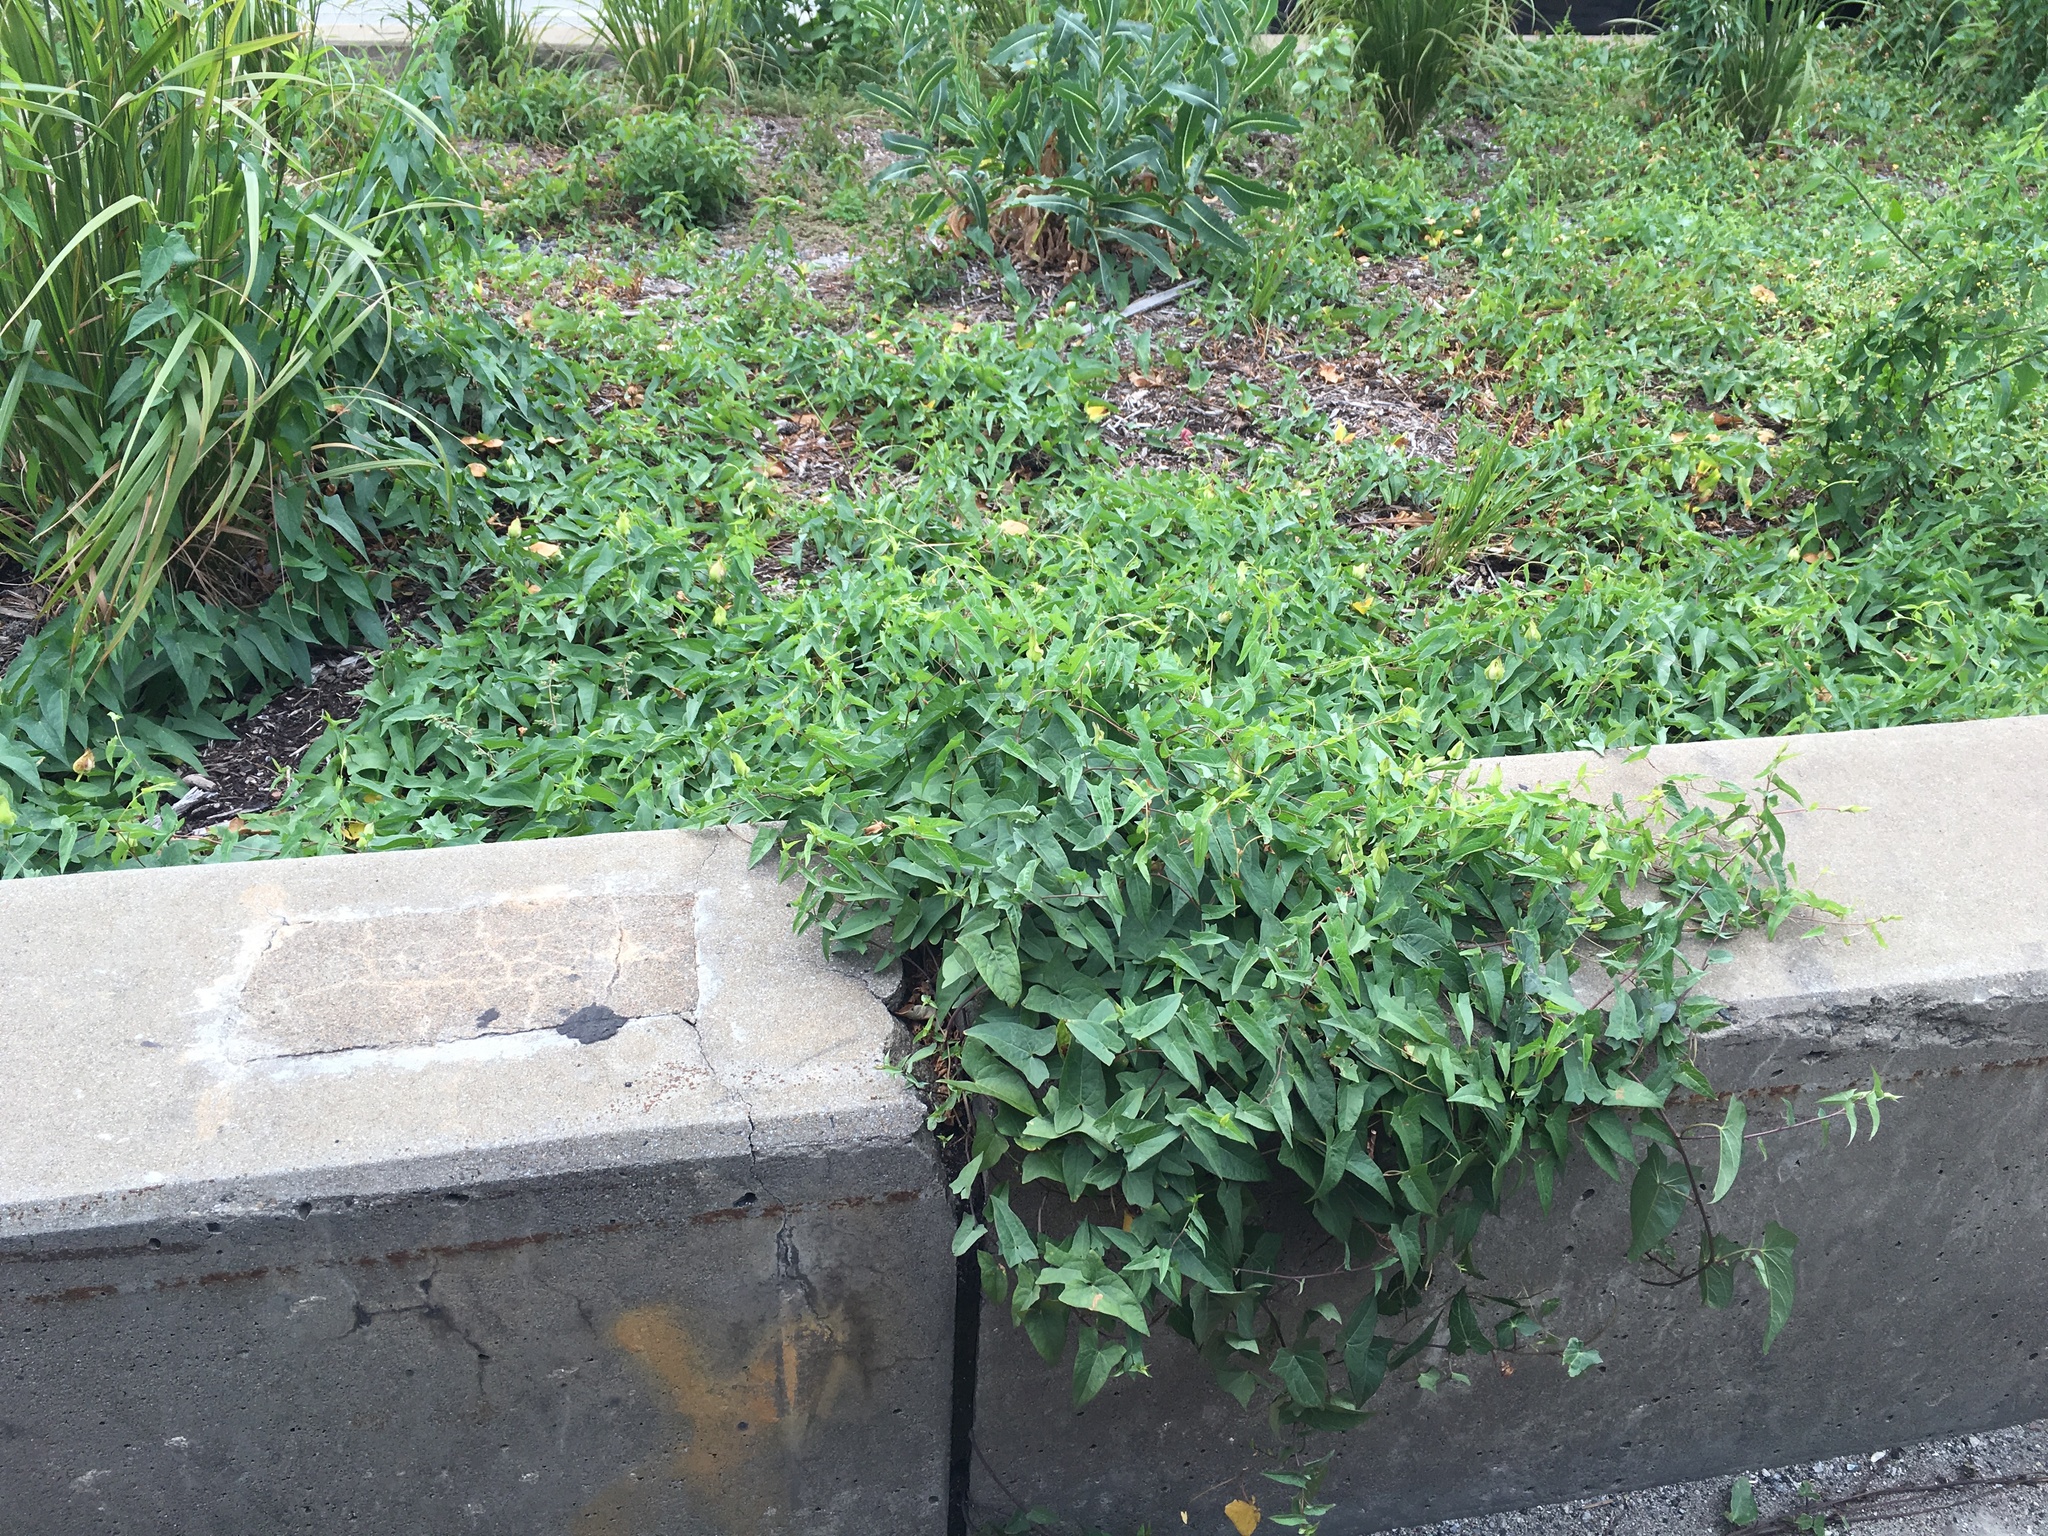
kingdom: Plantae
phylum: Tracheophyta
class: Magnoliopsida
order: Solanales
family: Convolvulaceae
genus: Calystegia
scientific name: Calystegia sepium
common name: Hedge bindweed
